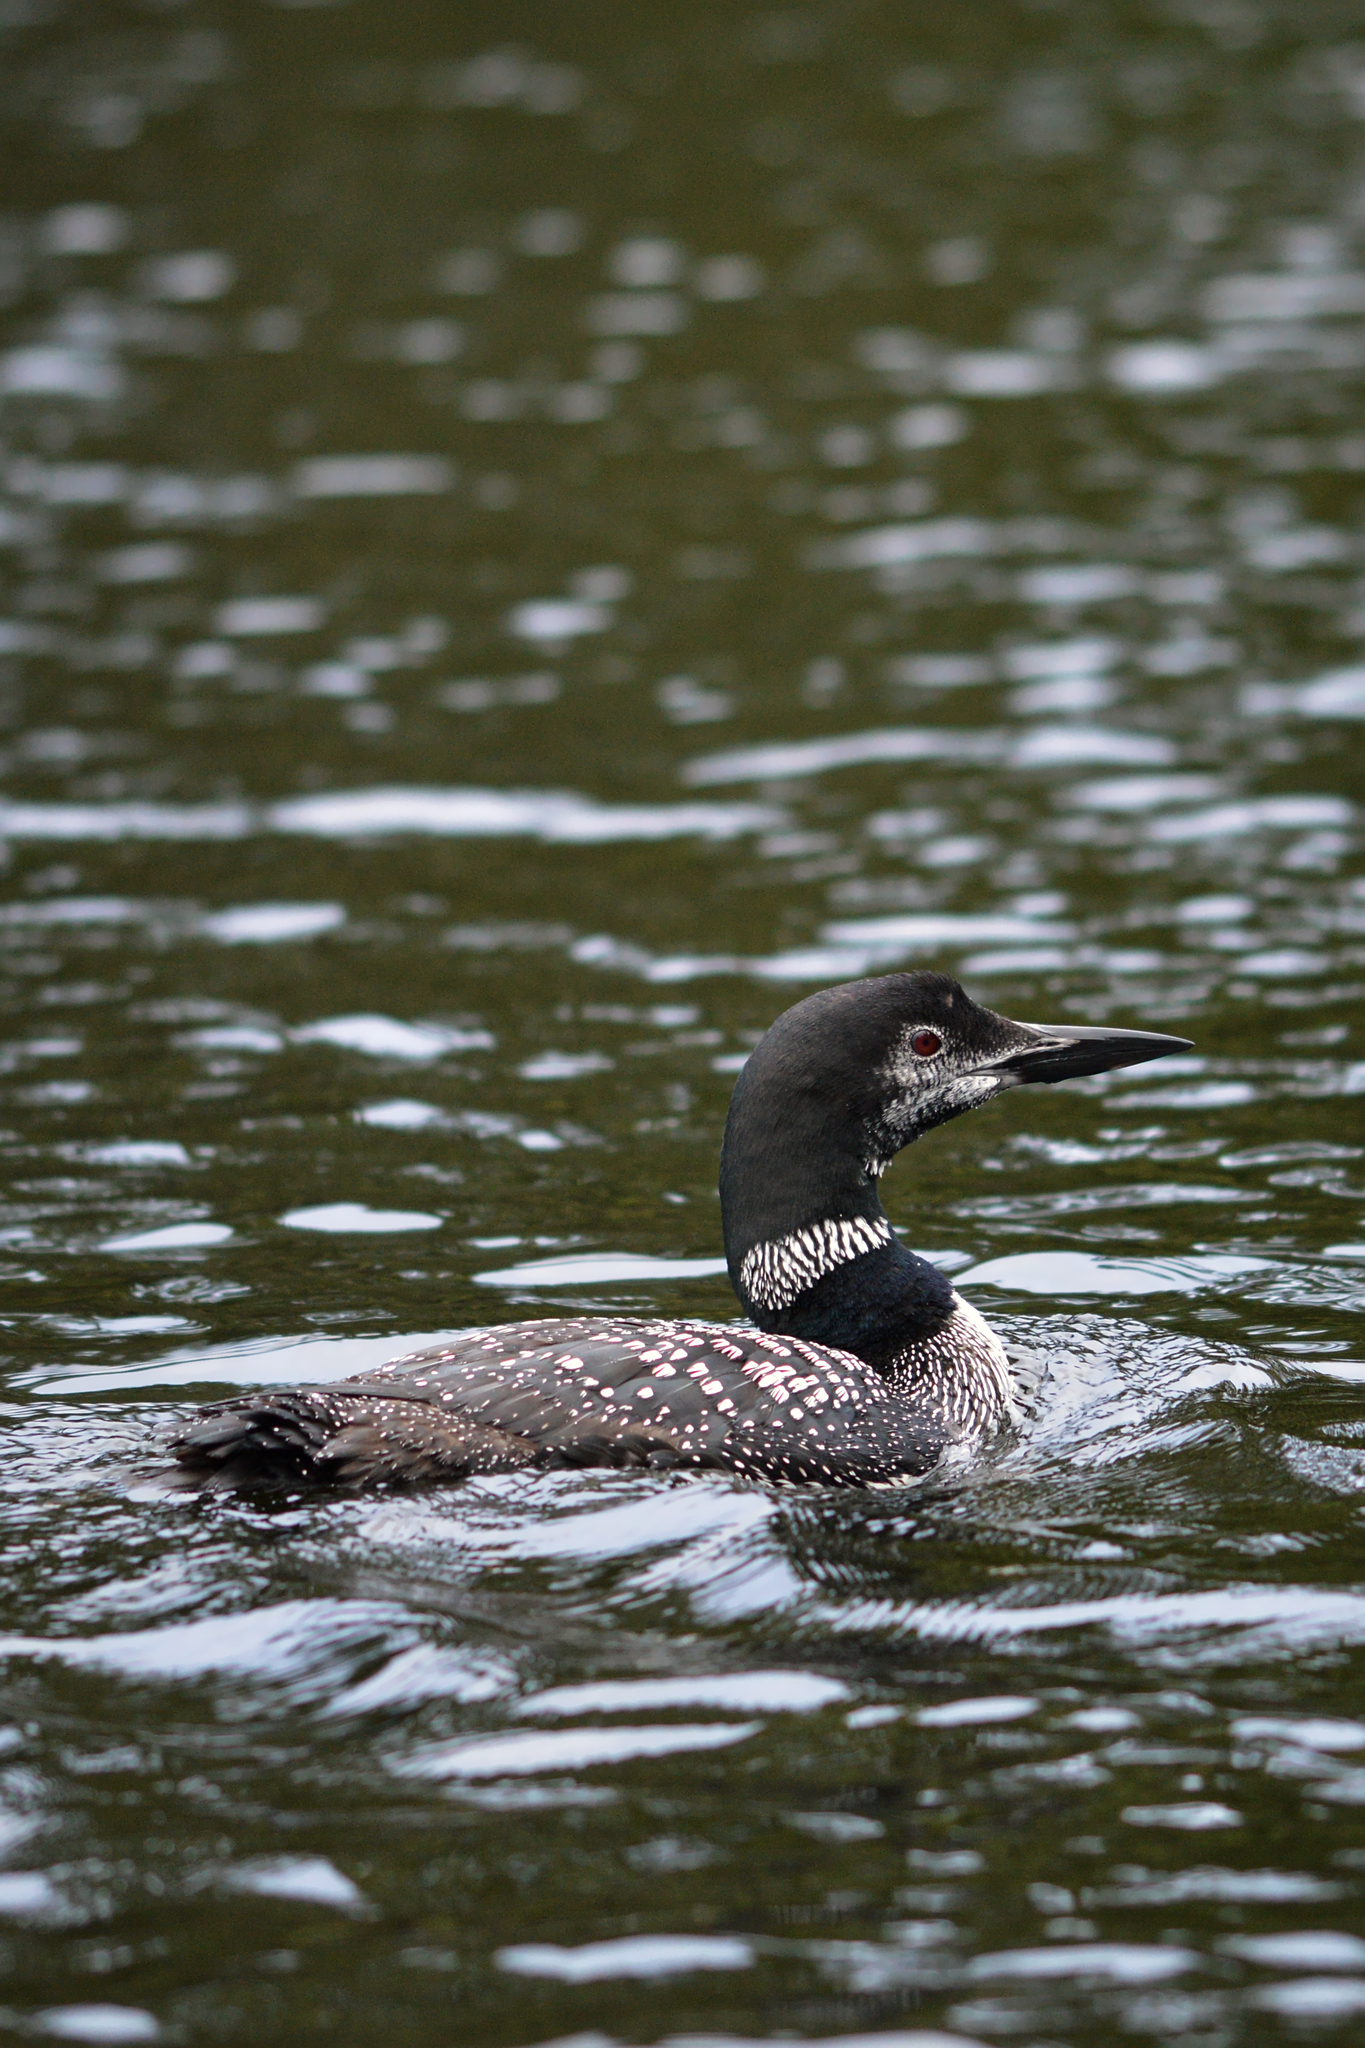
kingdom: Animalia
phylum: Chordata
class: Aves
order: Gaviiformes
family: Gaviidae
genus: Gavia
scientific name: Gavia immer
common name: Common loon
